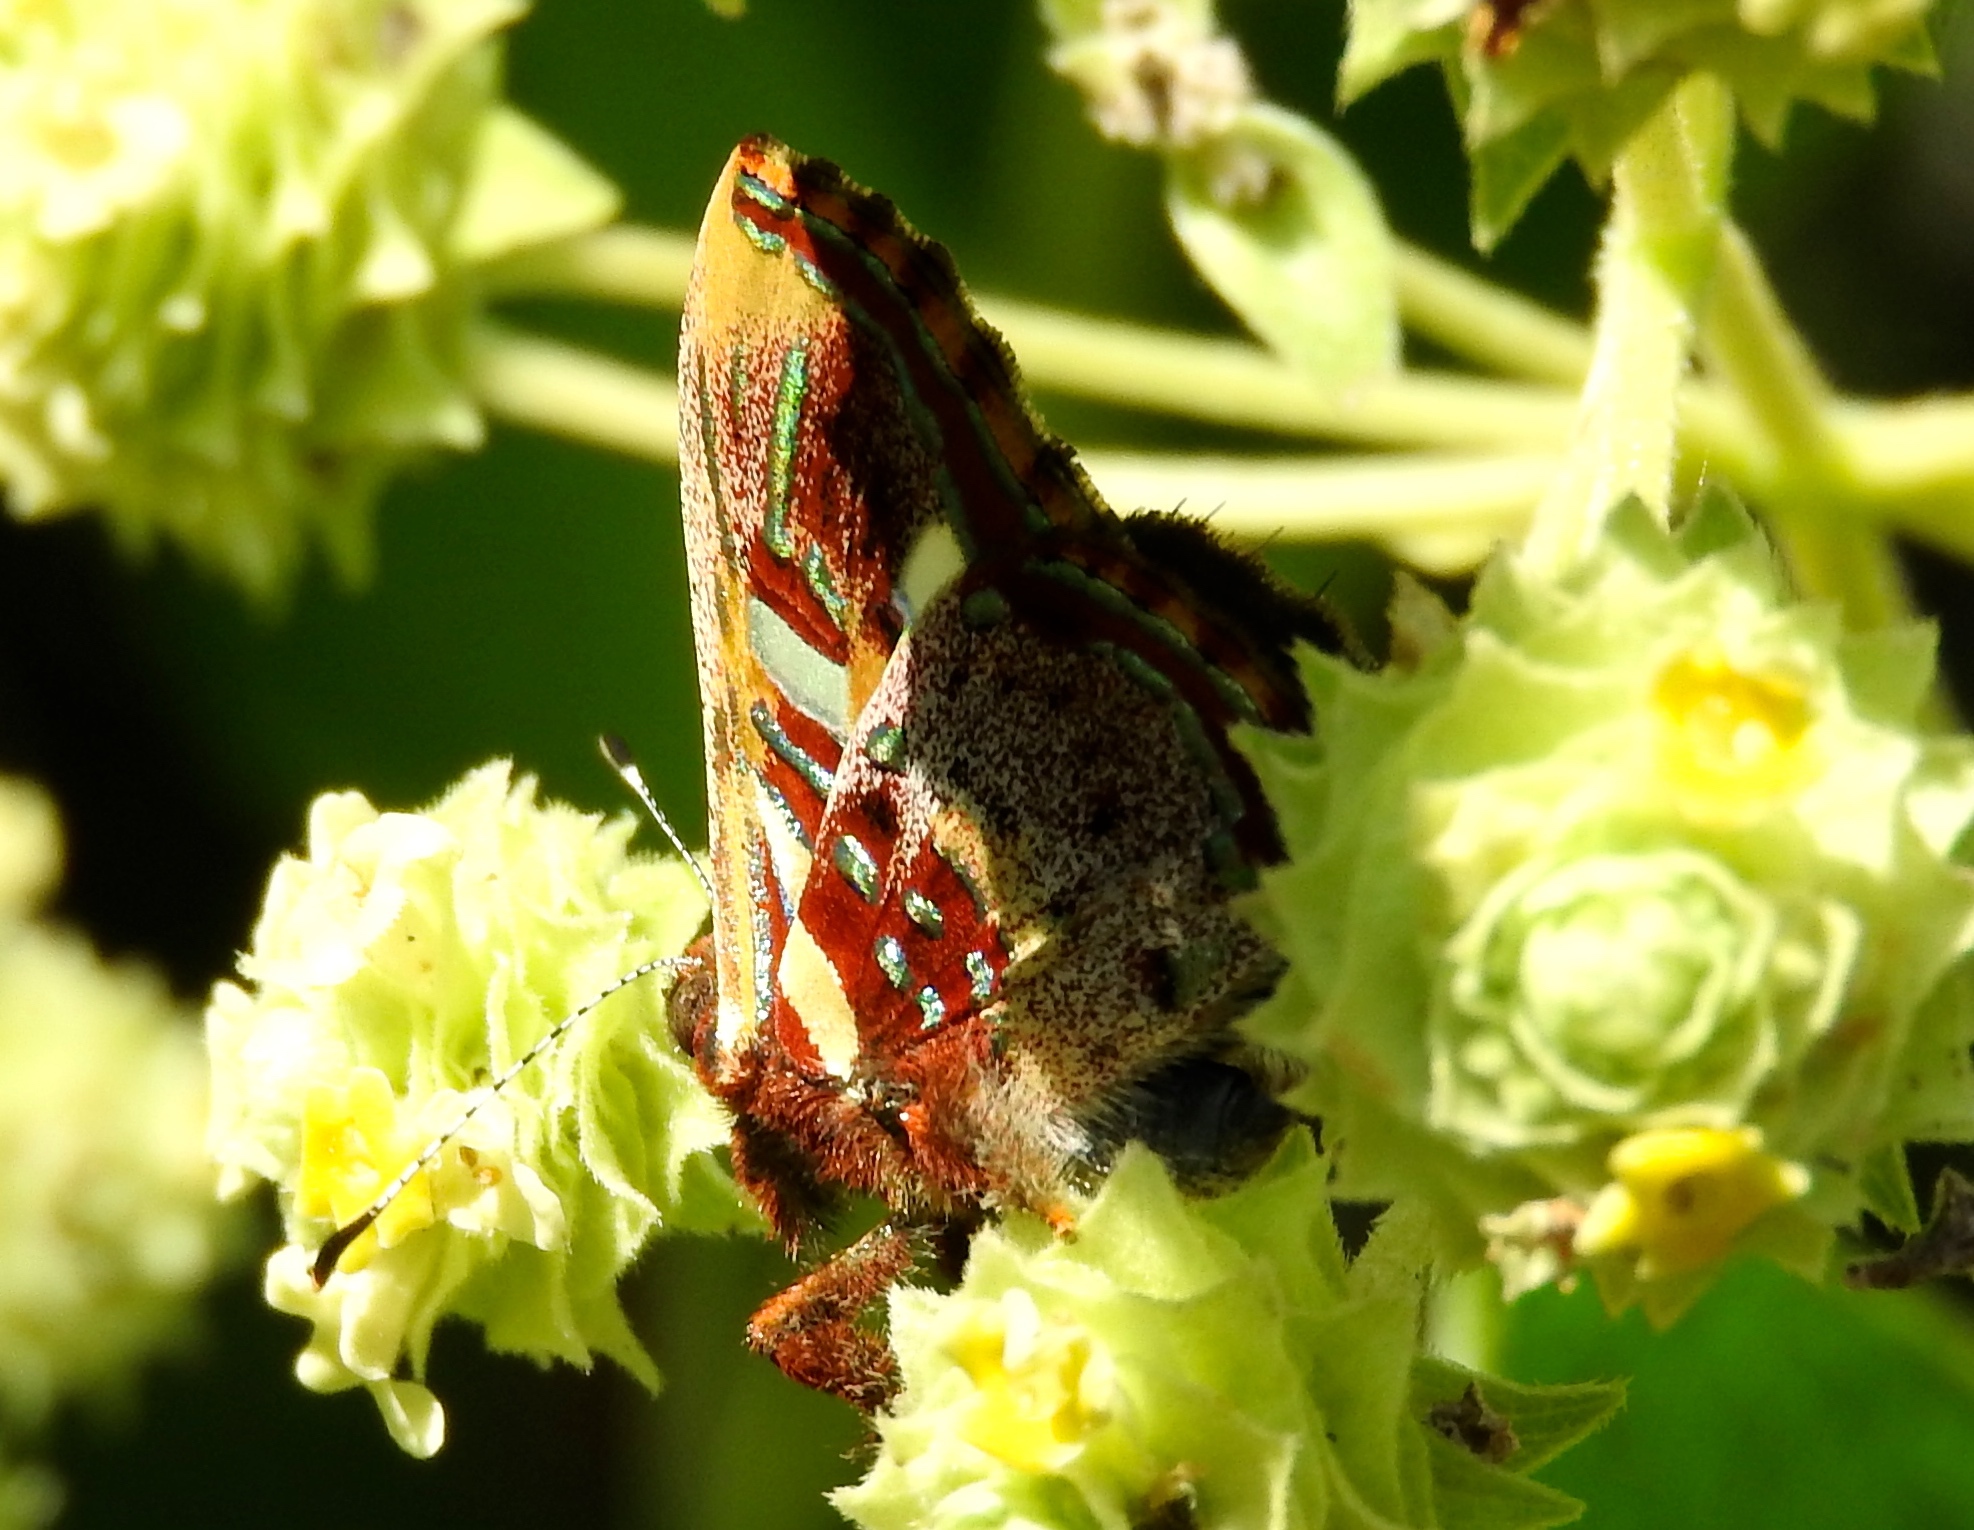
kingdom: Animalia
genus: Anteros
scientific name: Anteros carausius
